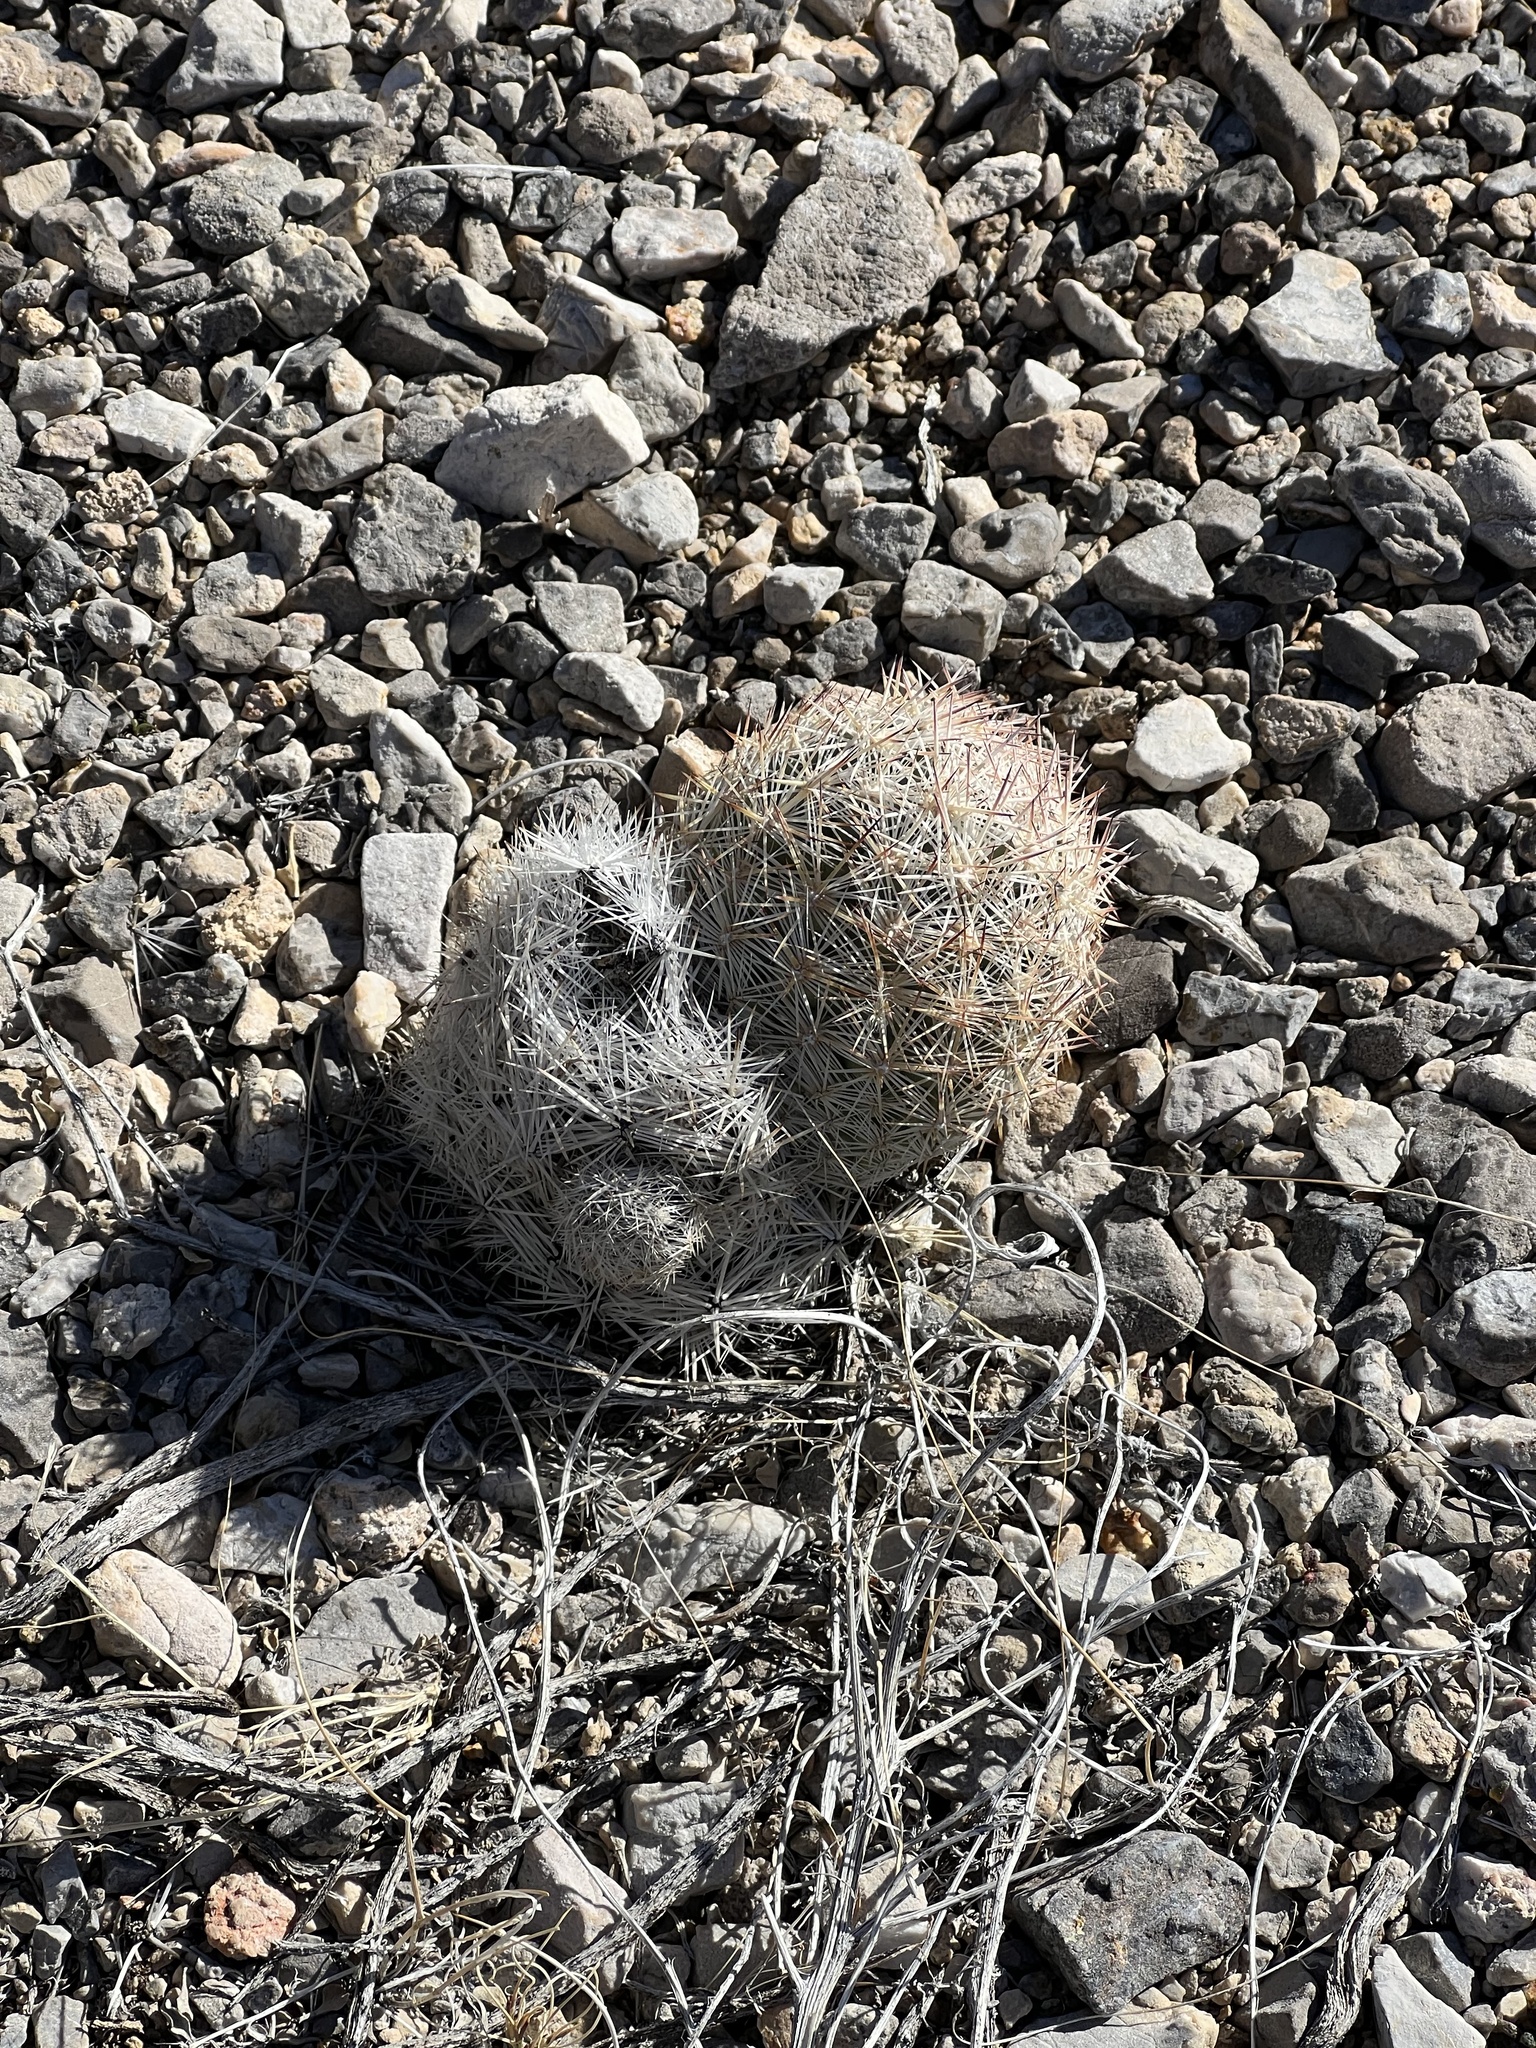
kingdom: Plantae
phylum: Tracheophyta
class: Magnoliopsida
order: Caryophyllales
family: Cactaceae
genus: Pelecyphora
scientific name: Pelecyphora dasyacantha
